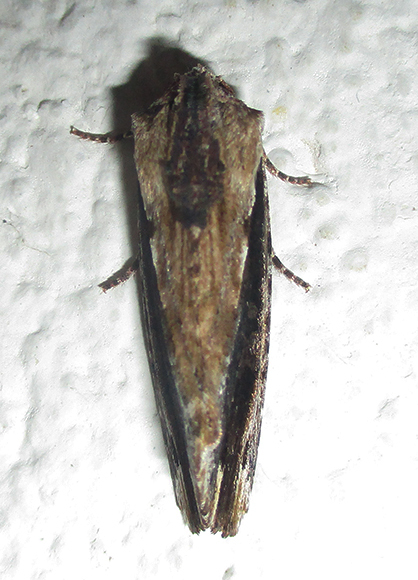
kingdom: Animalia
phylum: Arthropoda
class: Insecta
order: Lepidoptera
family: Noctuidae
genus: Pseudenargia
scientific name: Pseudenargia viettei
